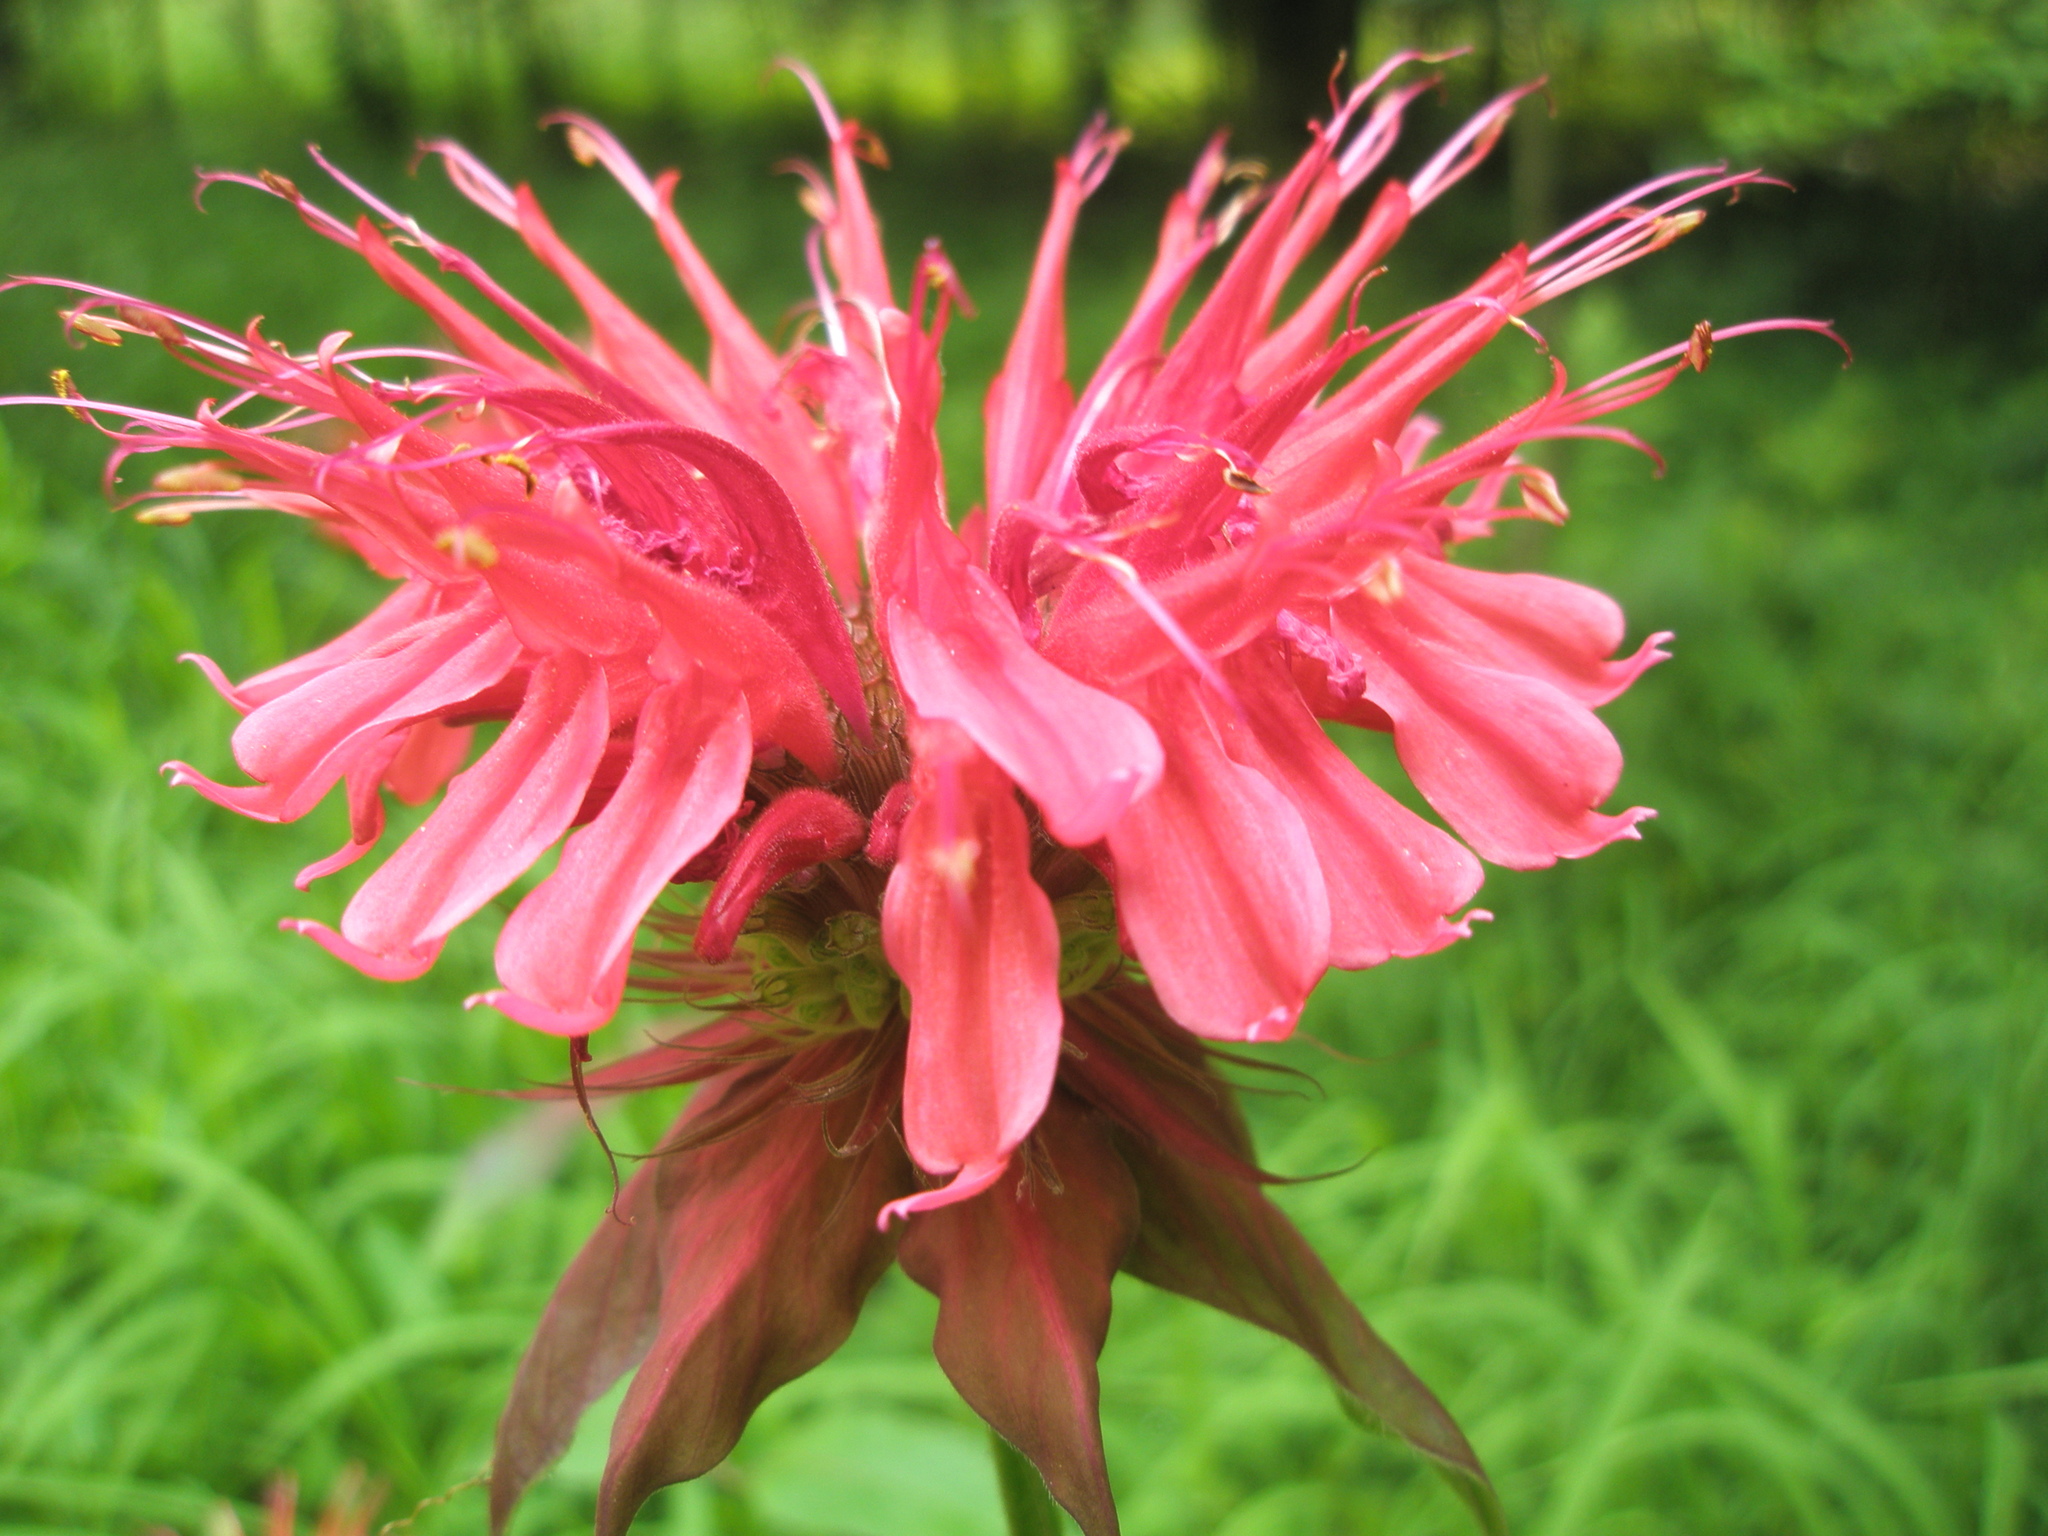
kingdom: Plantae
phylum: Tracheophyta
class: Magnoliopsida
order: Lamiales
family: Lamiaceae
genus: Monarda
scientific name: Monarda didyma
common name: Beebalm
